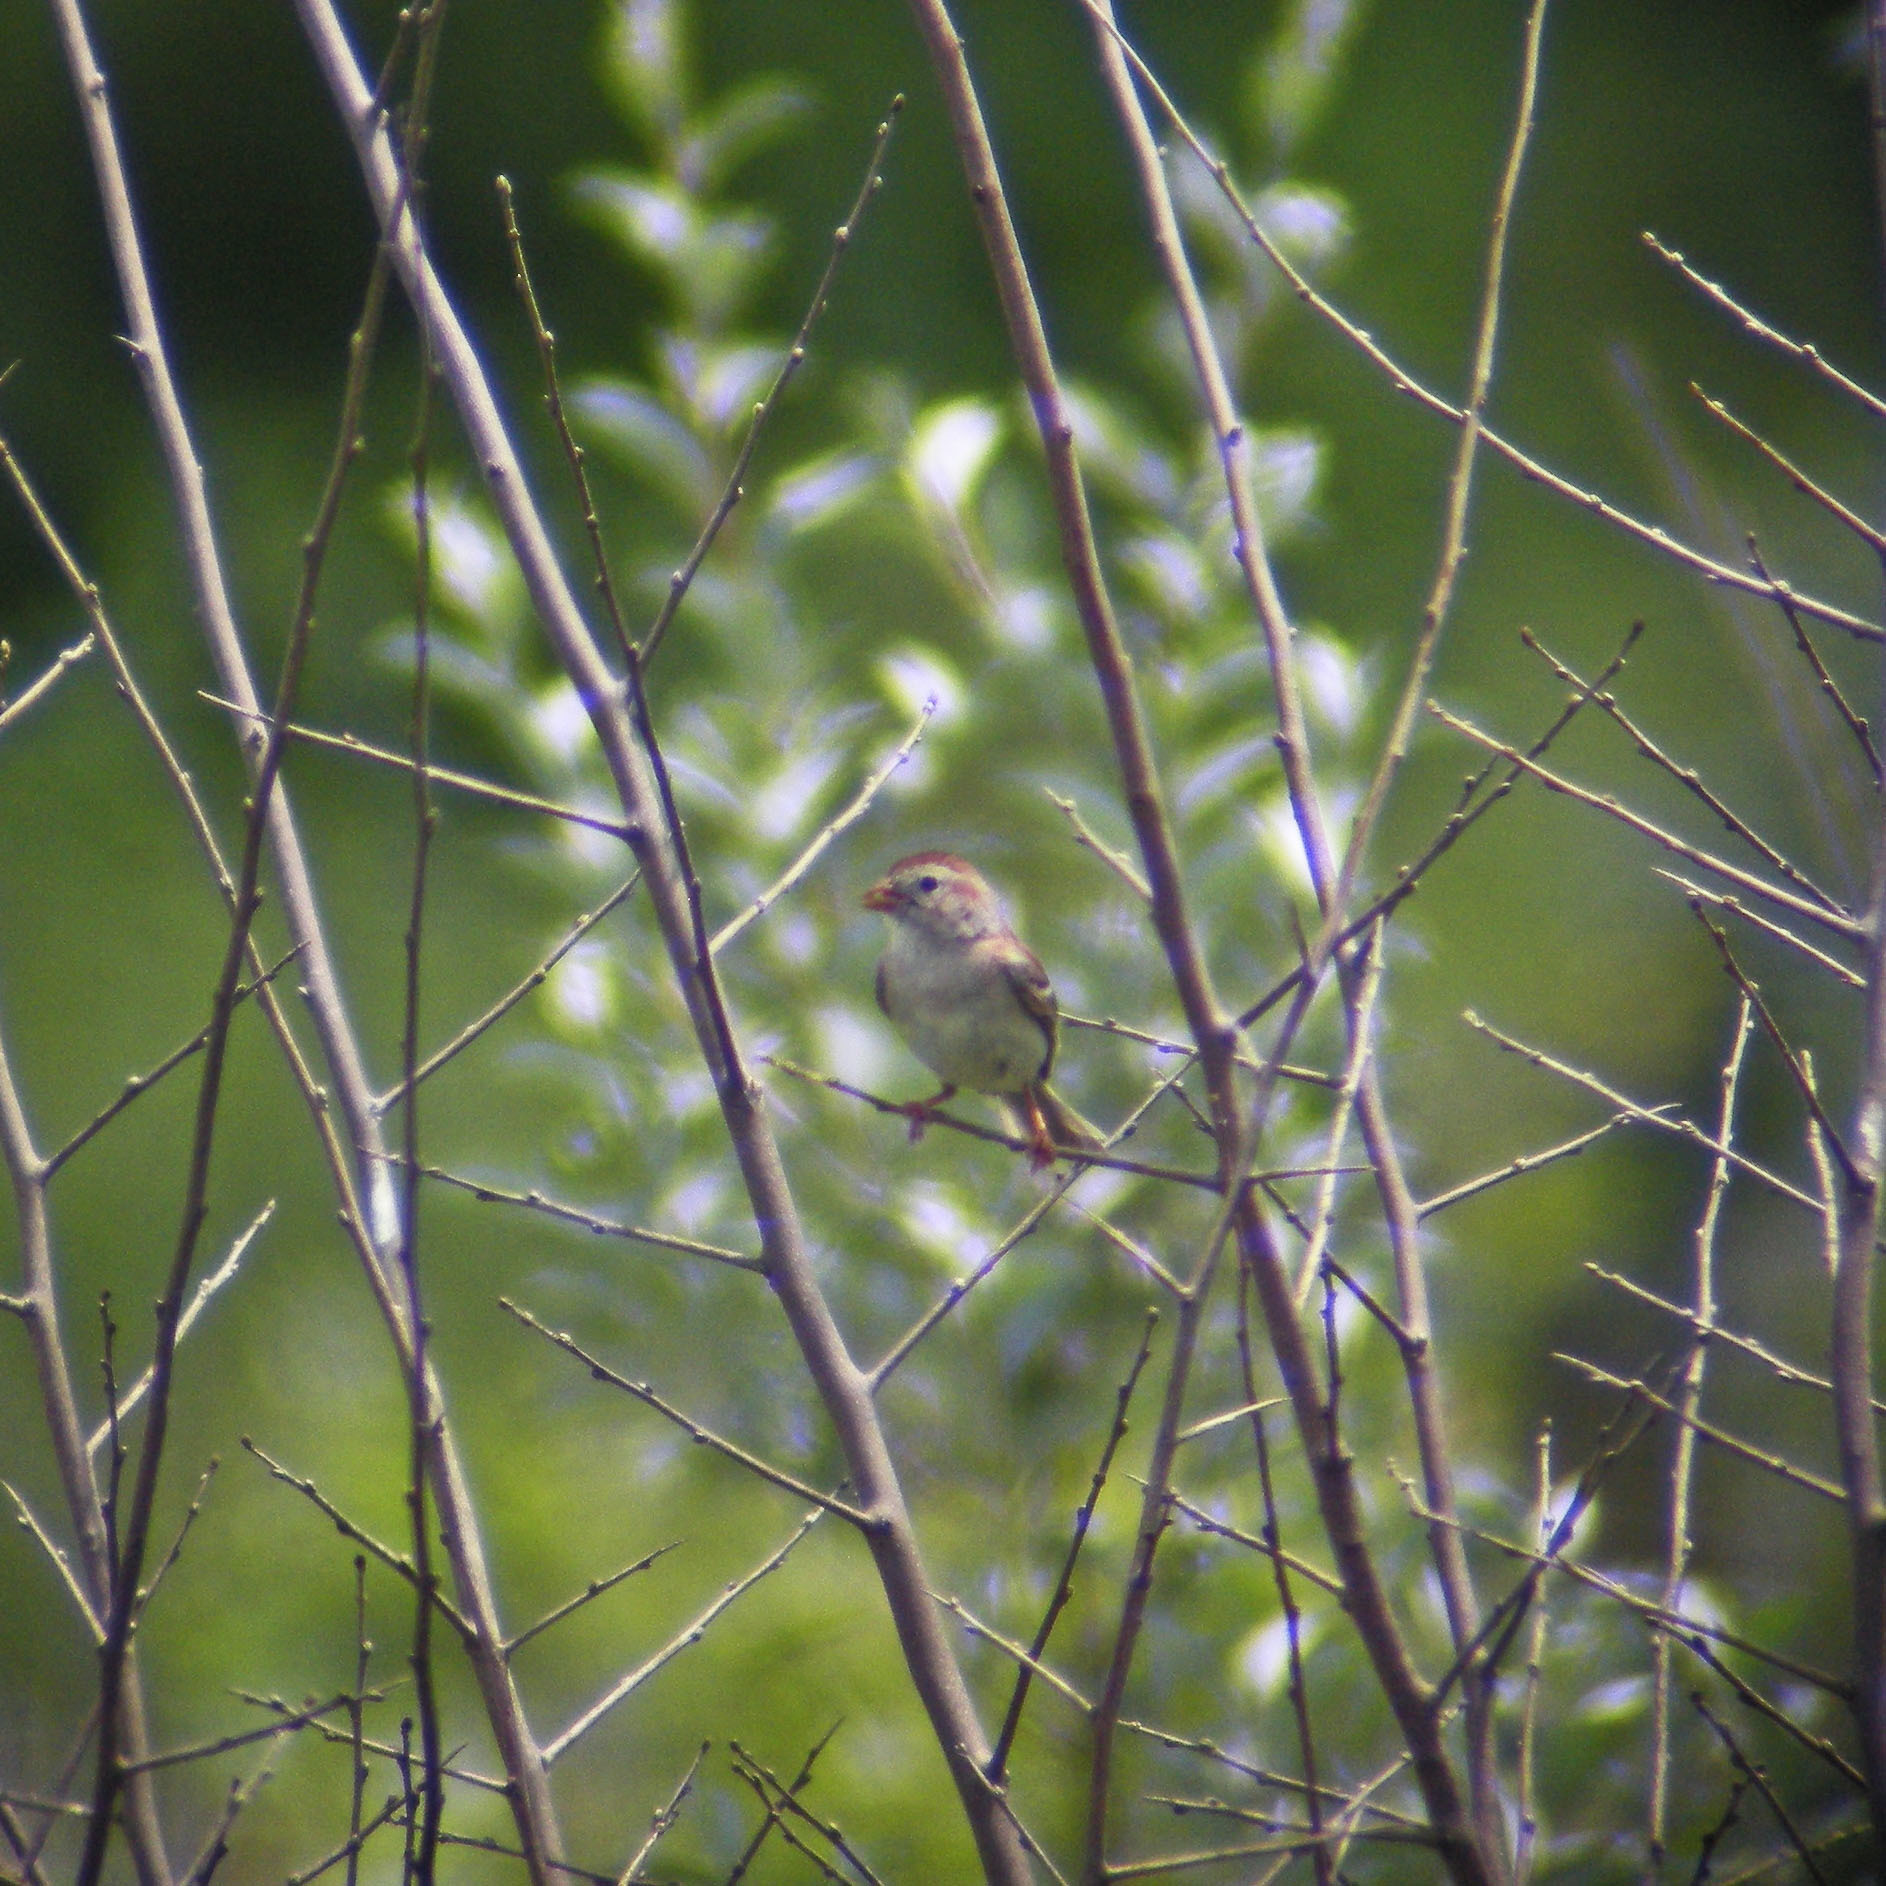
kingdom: Animalia
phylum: Chordata
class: Aves
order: Passeriformes
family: Passerellidae
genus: Spizella
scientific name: Spizella pusilla
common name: Field sparrow
